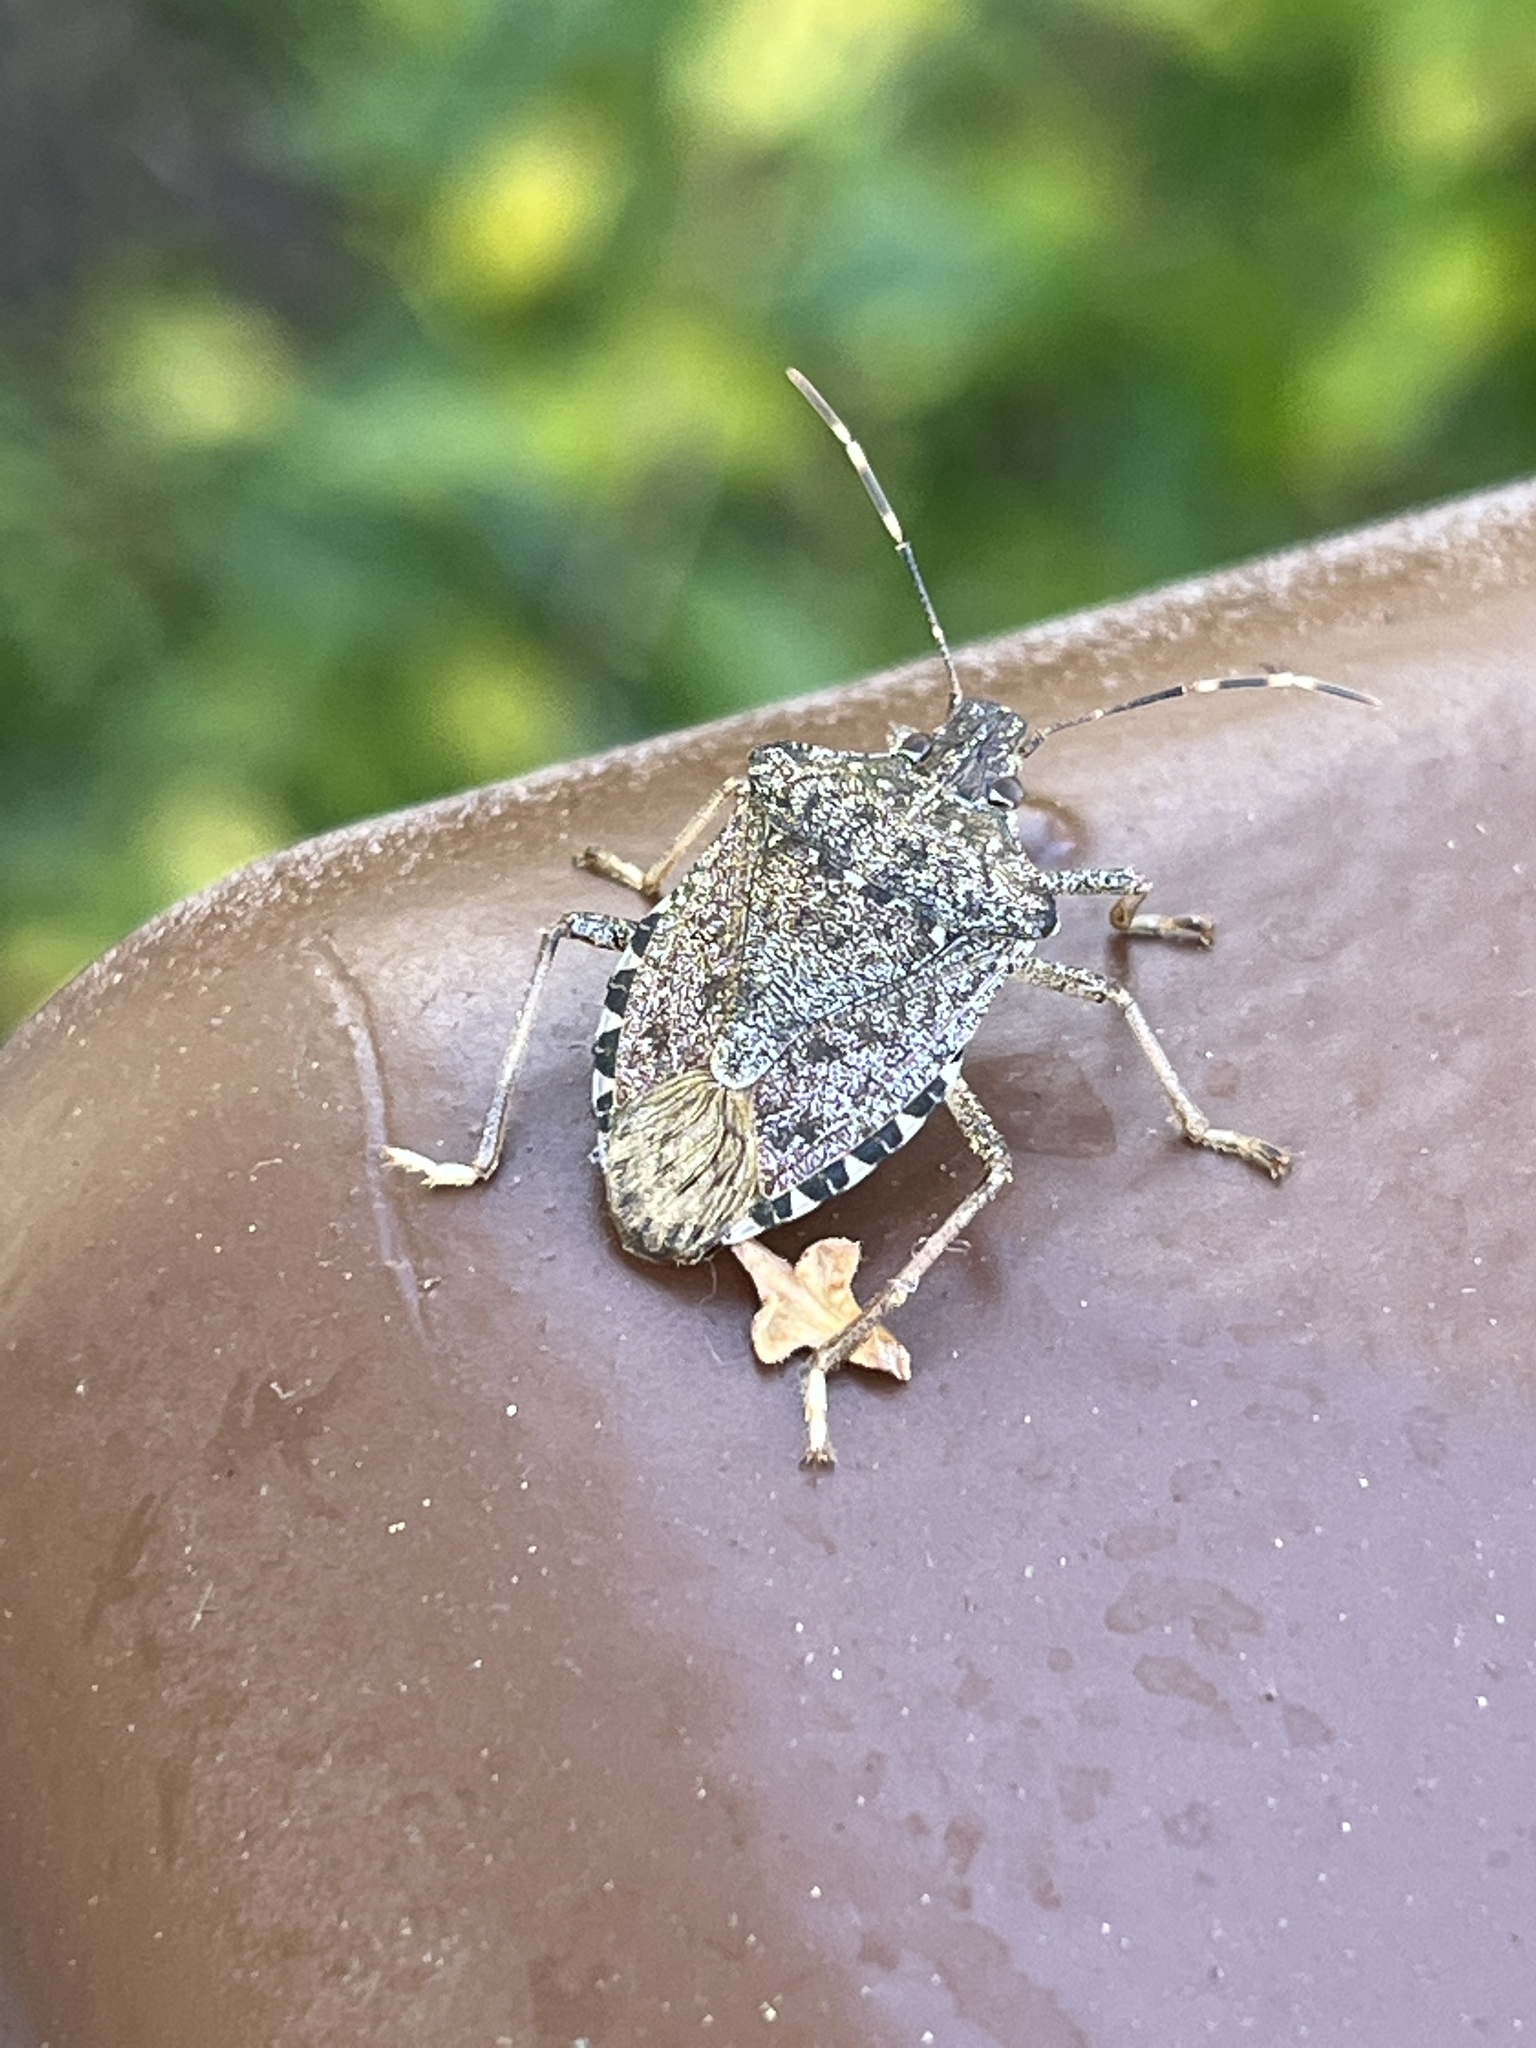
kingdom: Animalia
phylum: Arthropoda
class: Insecta
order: Hemiptera
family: Pentatomidae
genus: Halyomorpha
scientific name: Halyomorpha halys
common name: Brown marmorated stink bug
